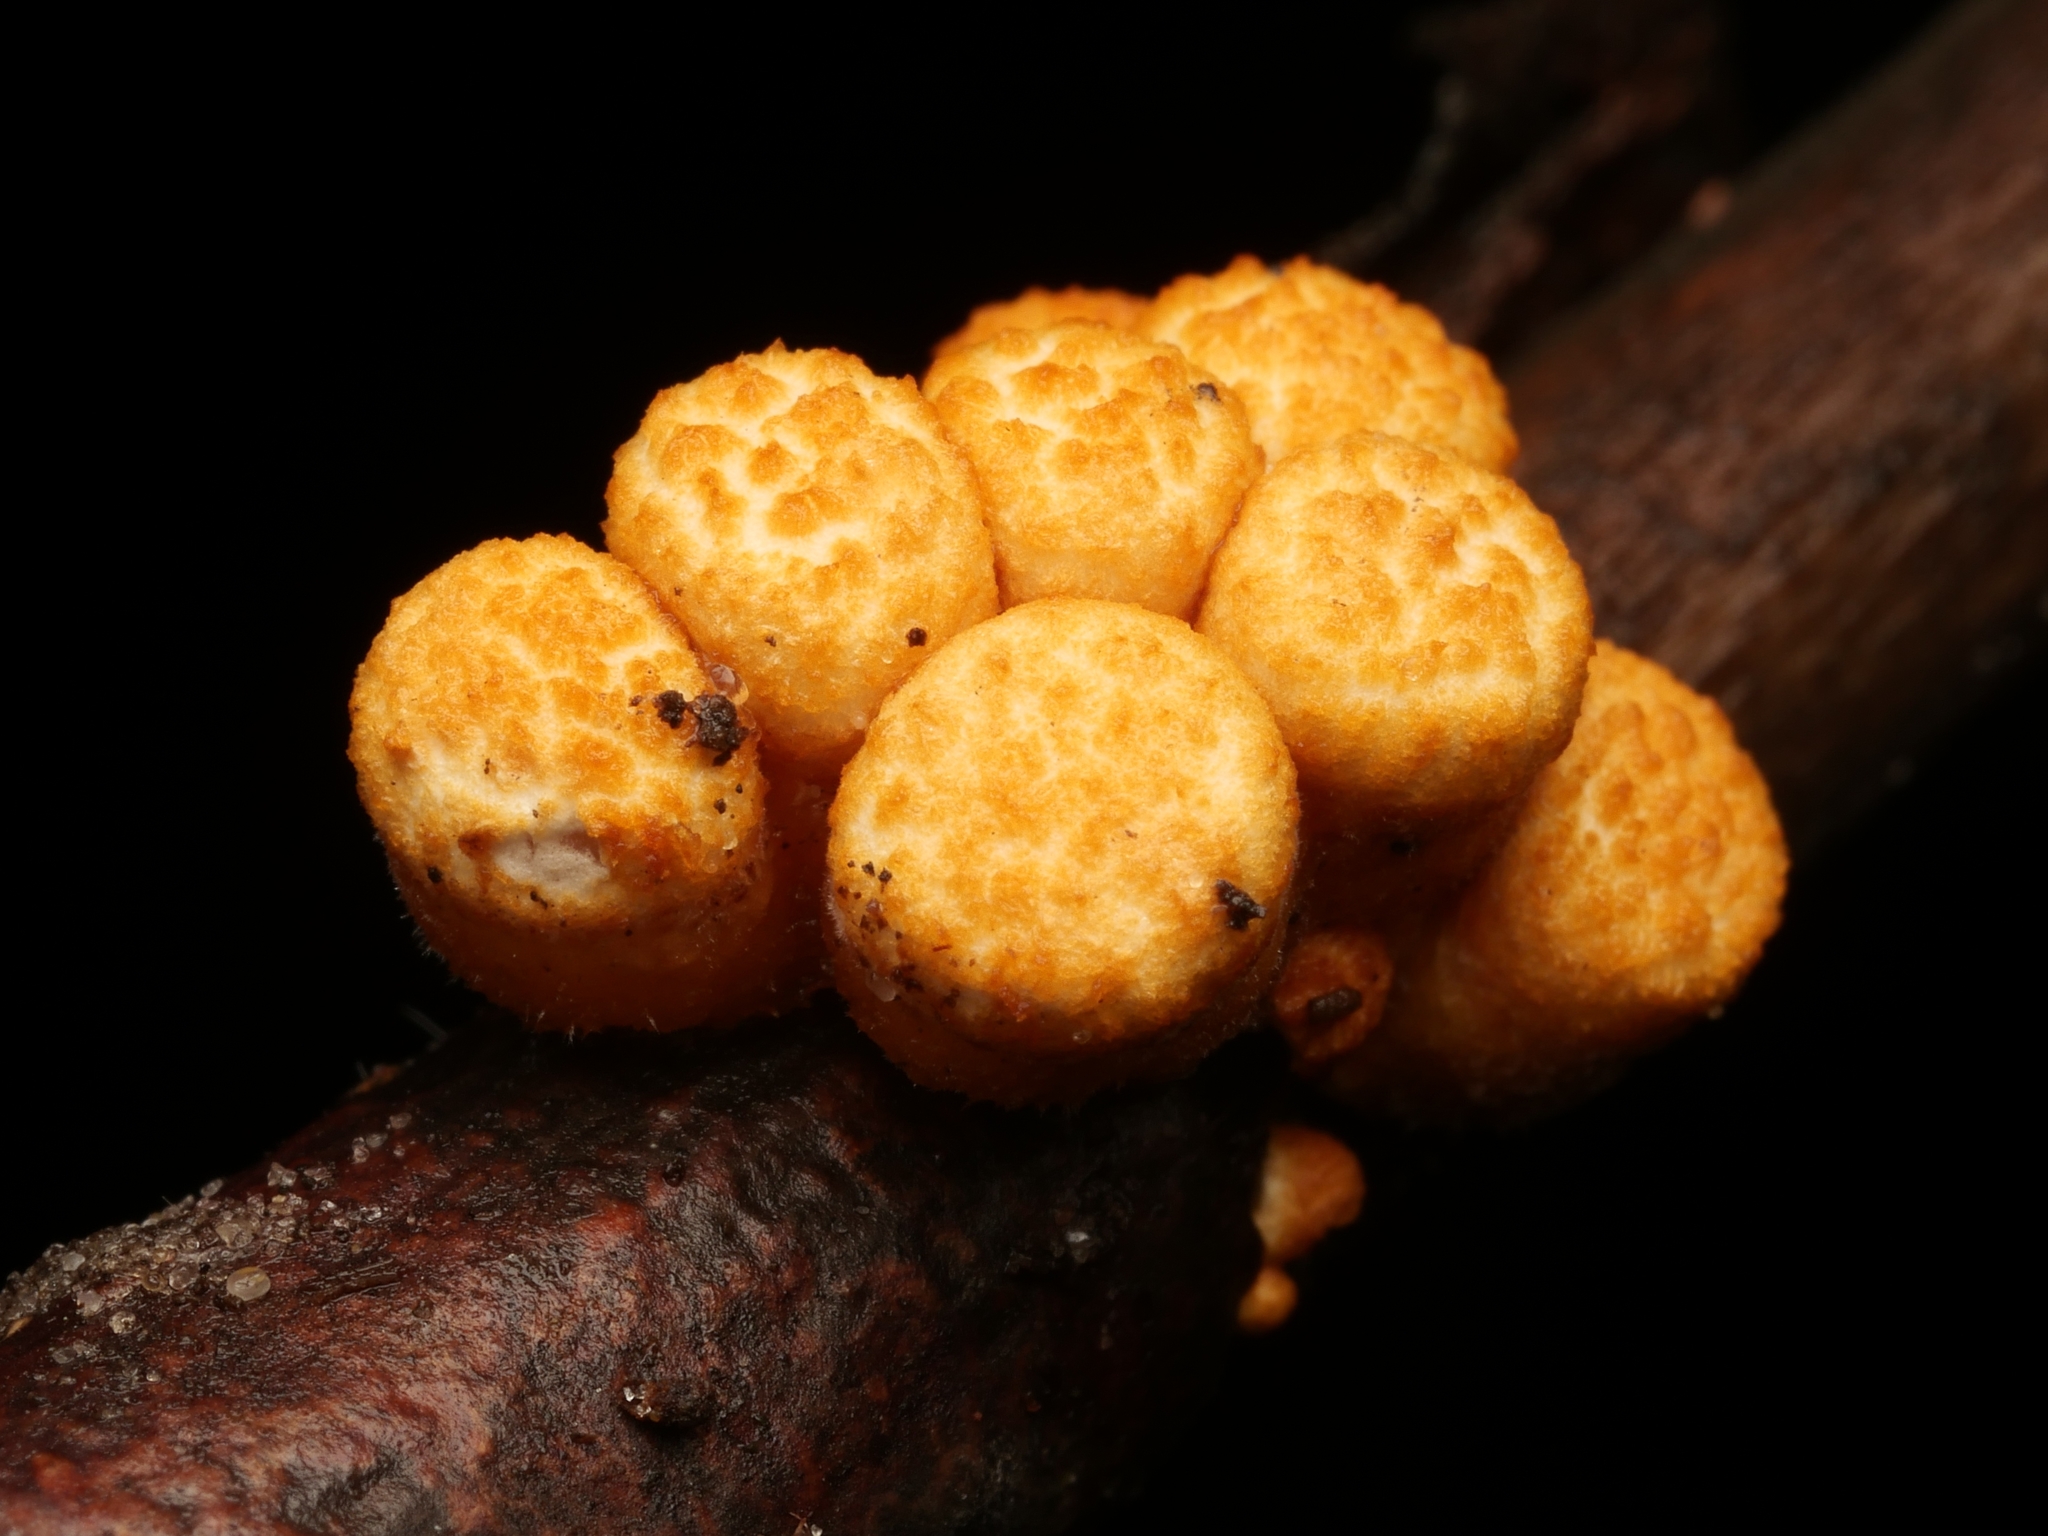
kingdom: Fungi
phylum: Basidiomycota
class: Agaricomycetes
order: Agaricales
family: Nidulariaceae
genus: Crucibulum
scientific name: Crucibulum laeve
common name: Common bird's nest
